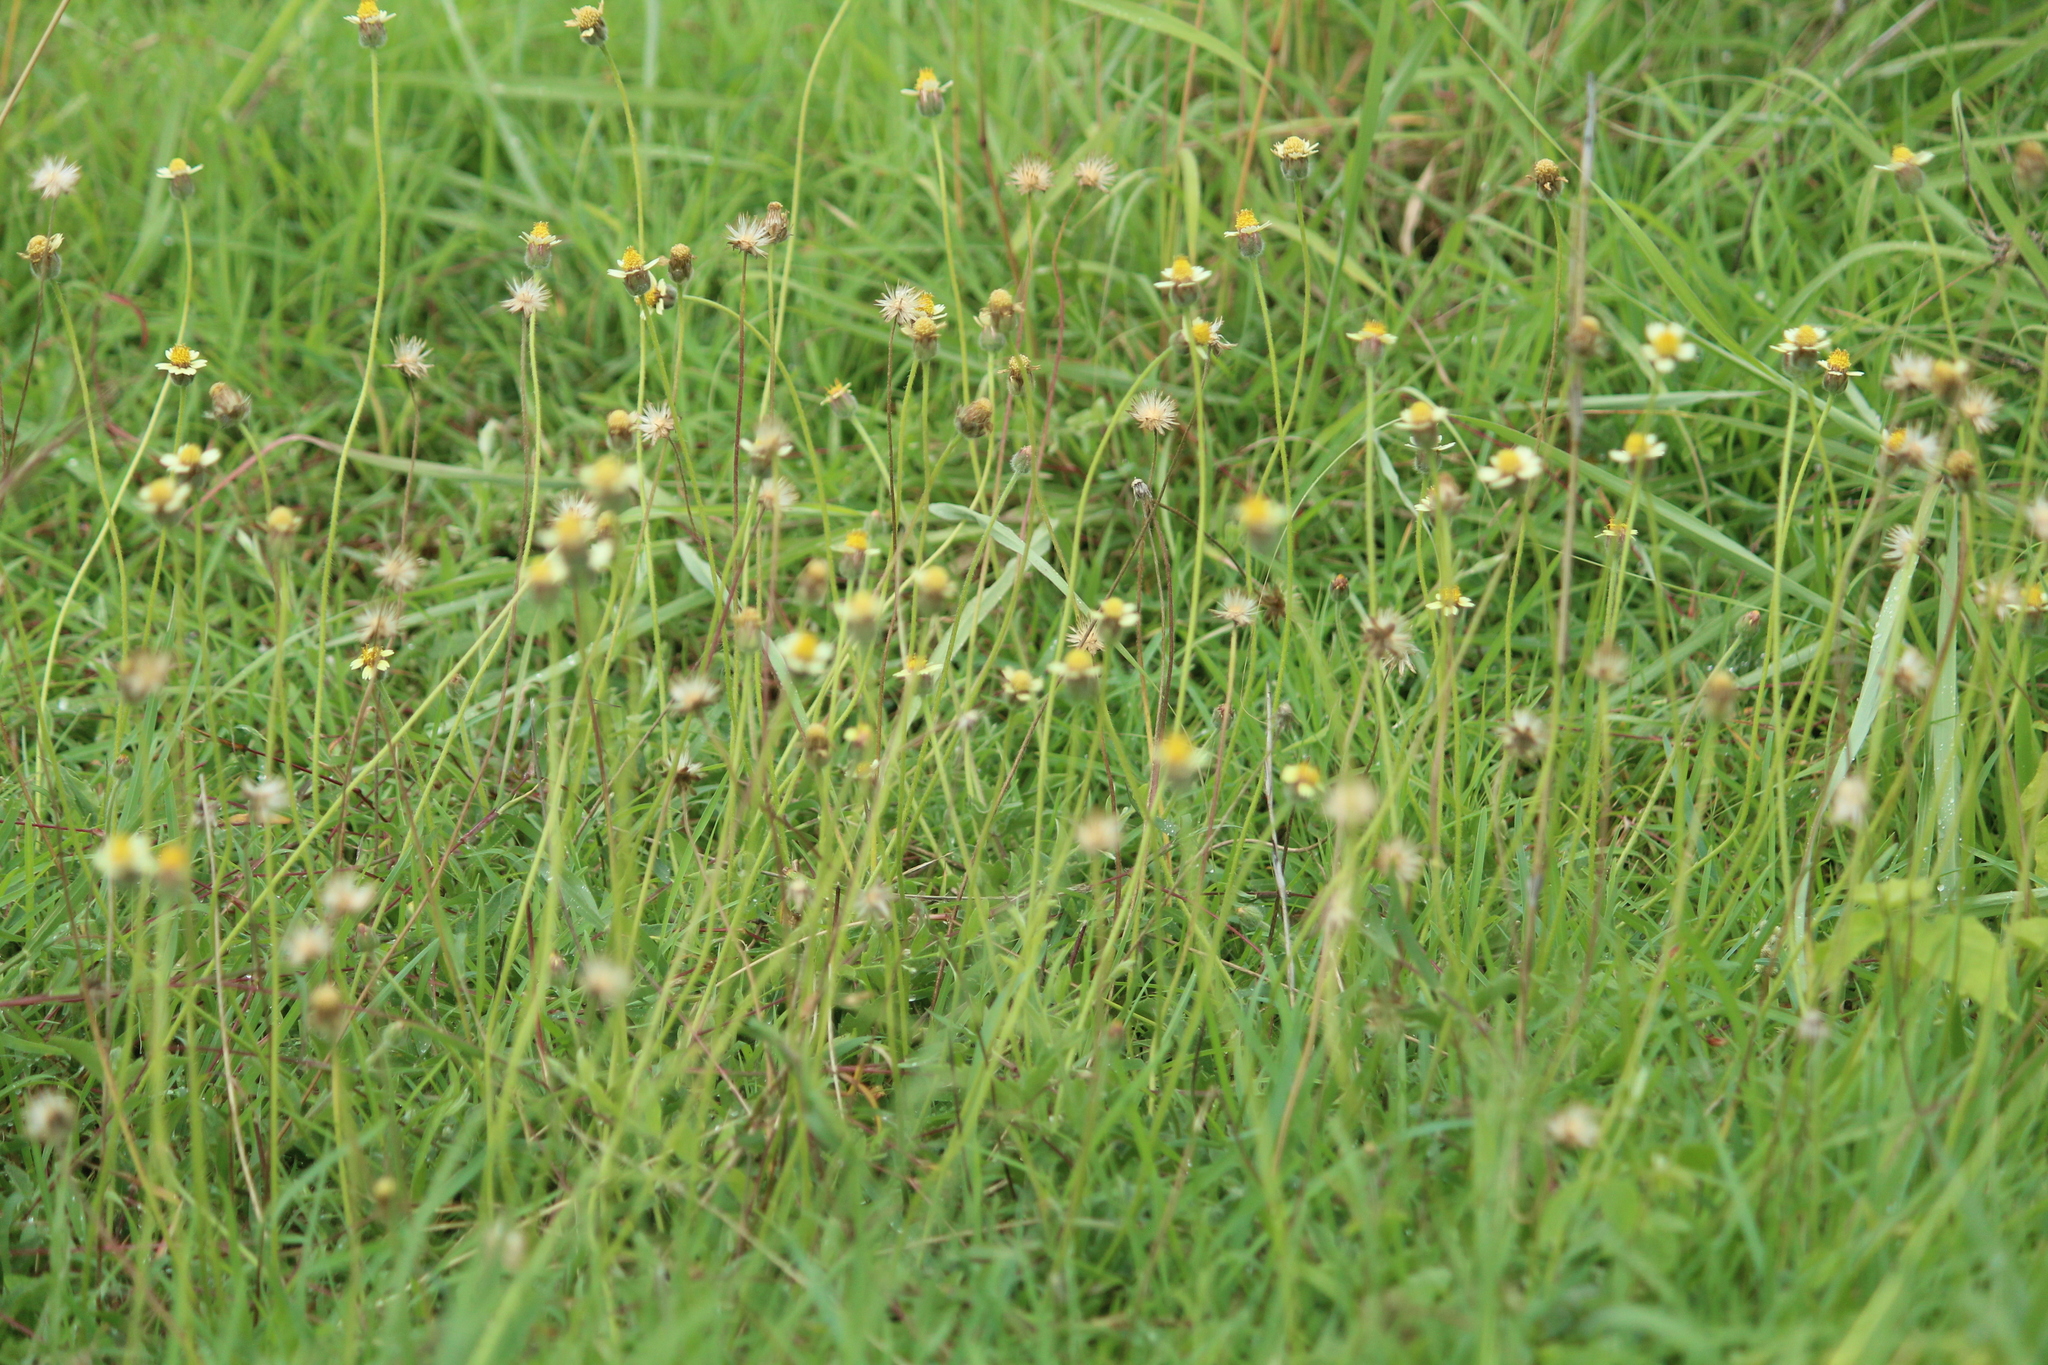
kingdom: Plantae
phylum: Tracheophyta
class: Magnoliopsida
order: Asterales
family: Asteraceae
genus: Tridax
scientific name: Tridax procumbens
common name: Coatbuttons
